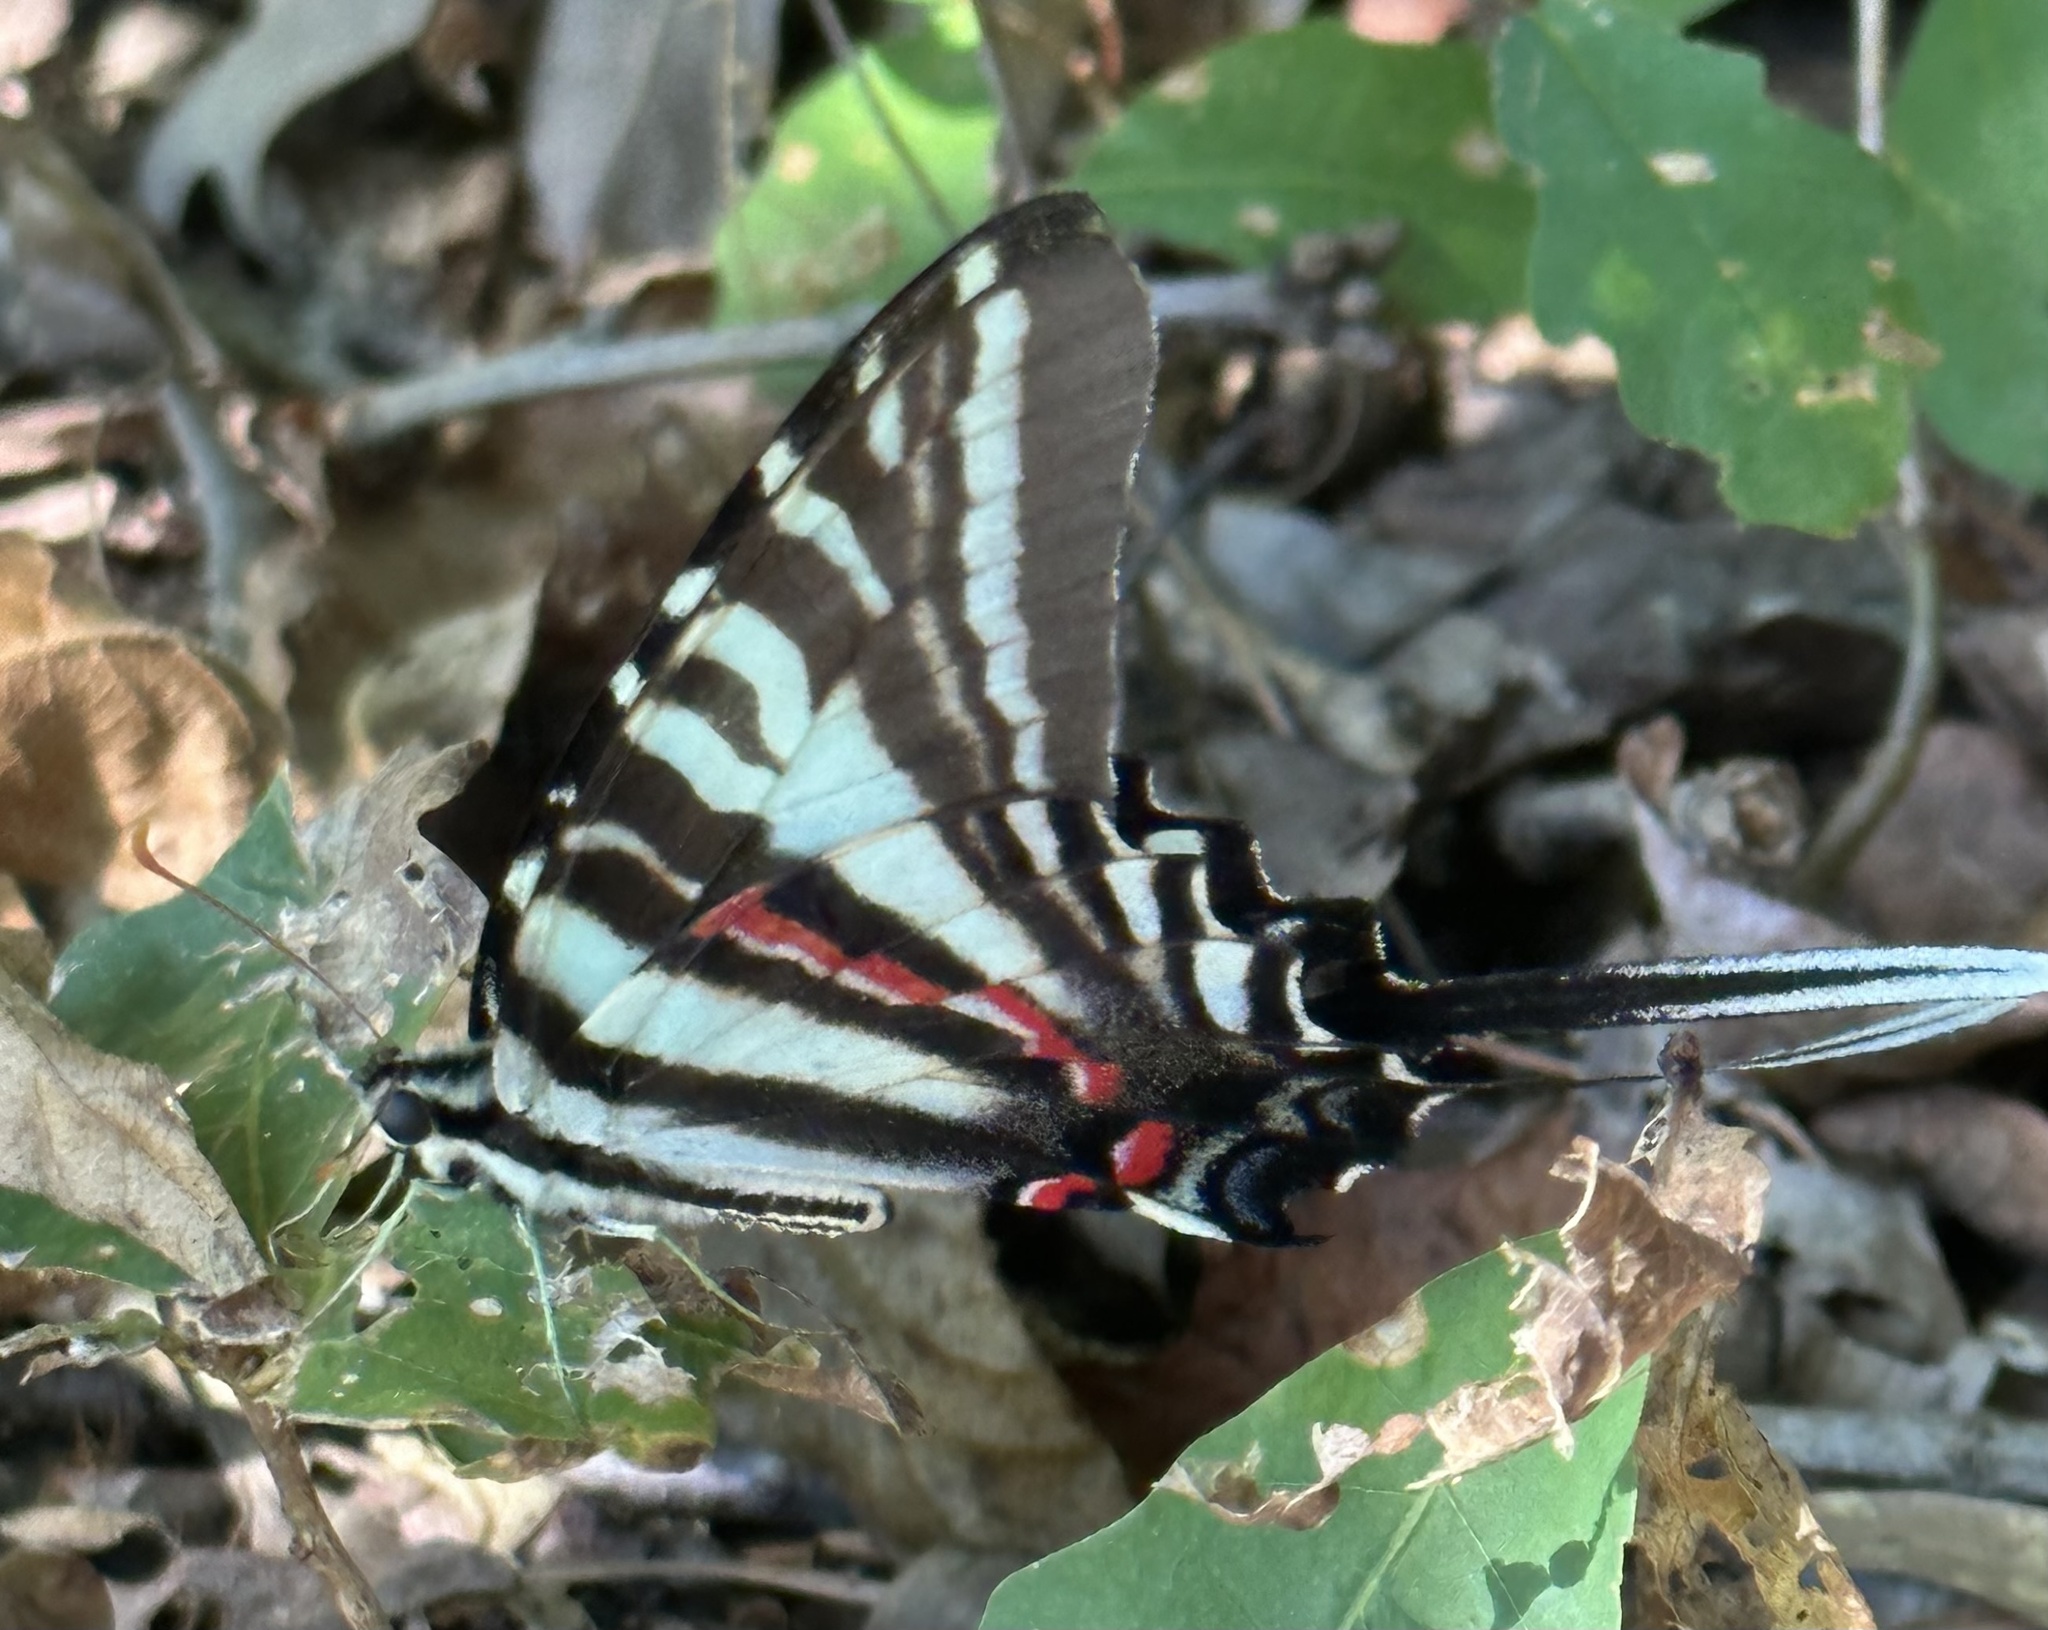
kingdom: Animalia
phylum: Arthropoda
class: Insecta
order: Lepidoptera
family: Papilionidae
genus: Protographium
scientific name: Protographium marcellus
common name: Zebra swallowtail
